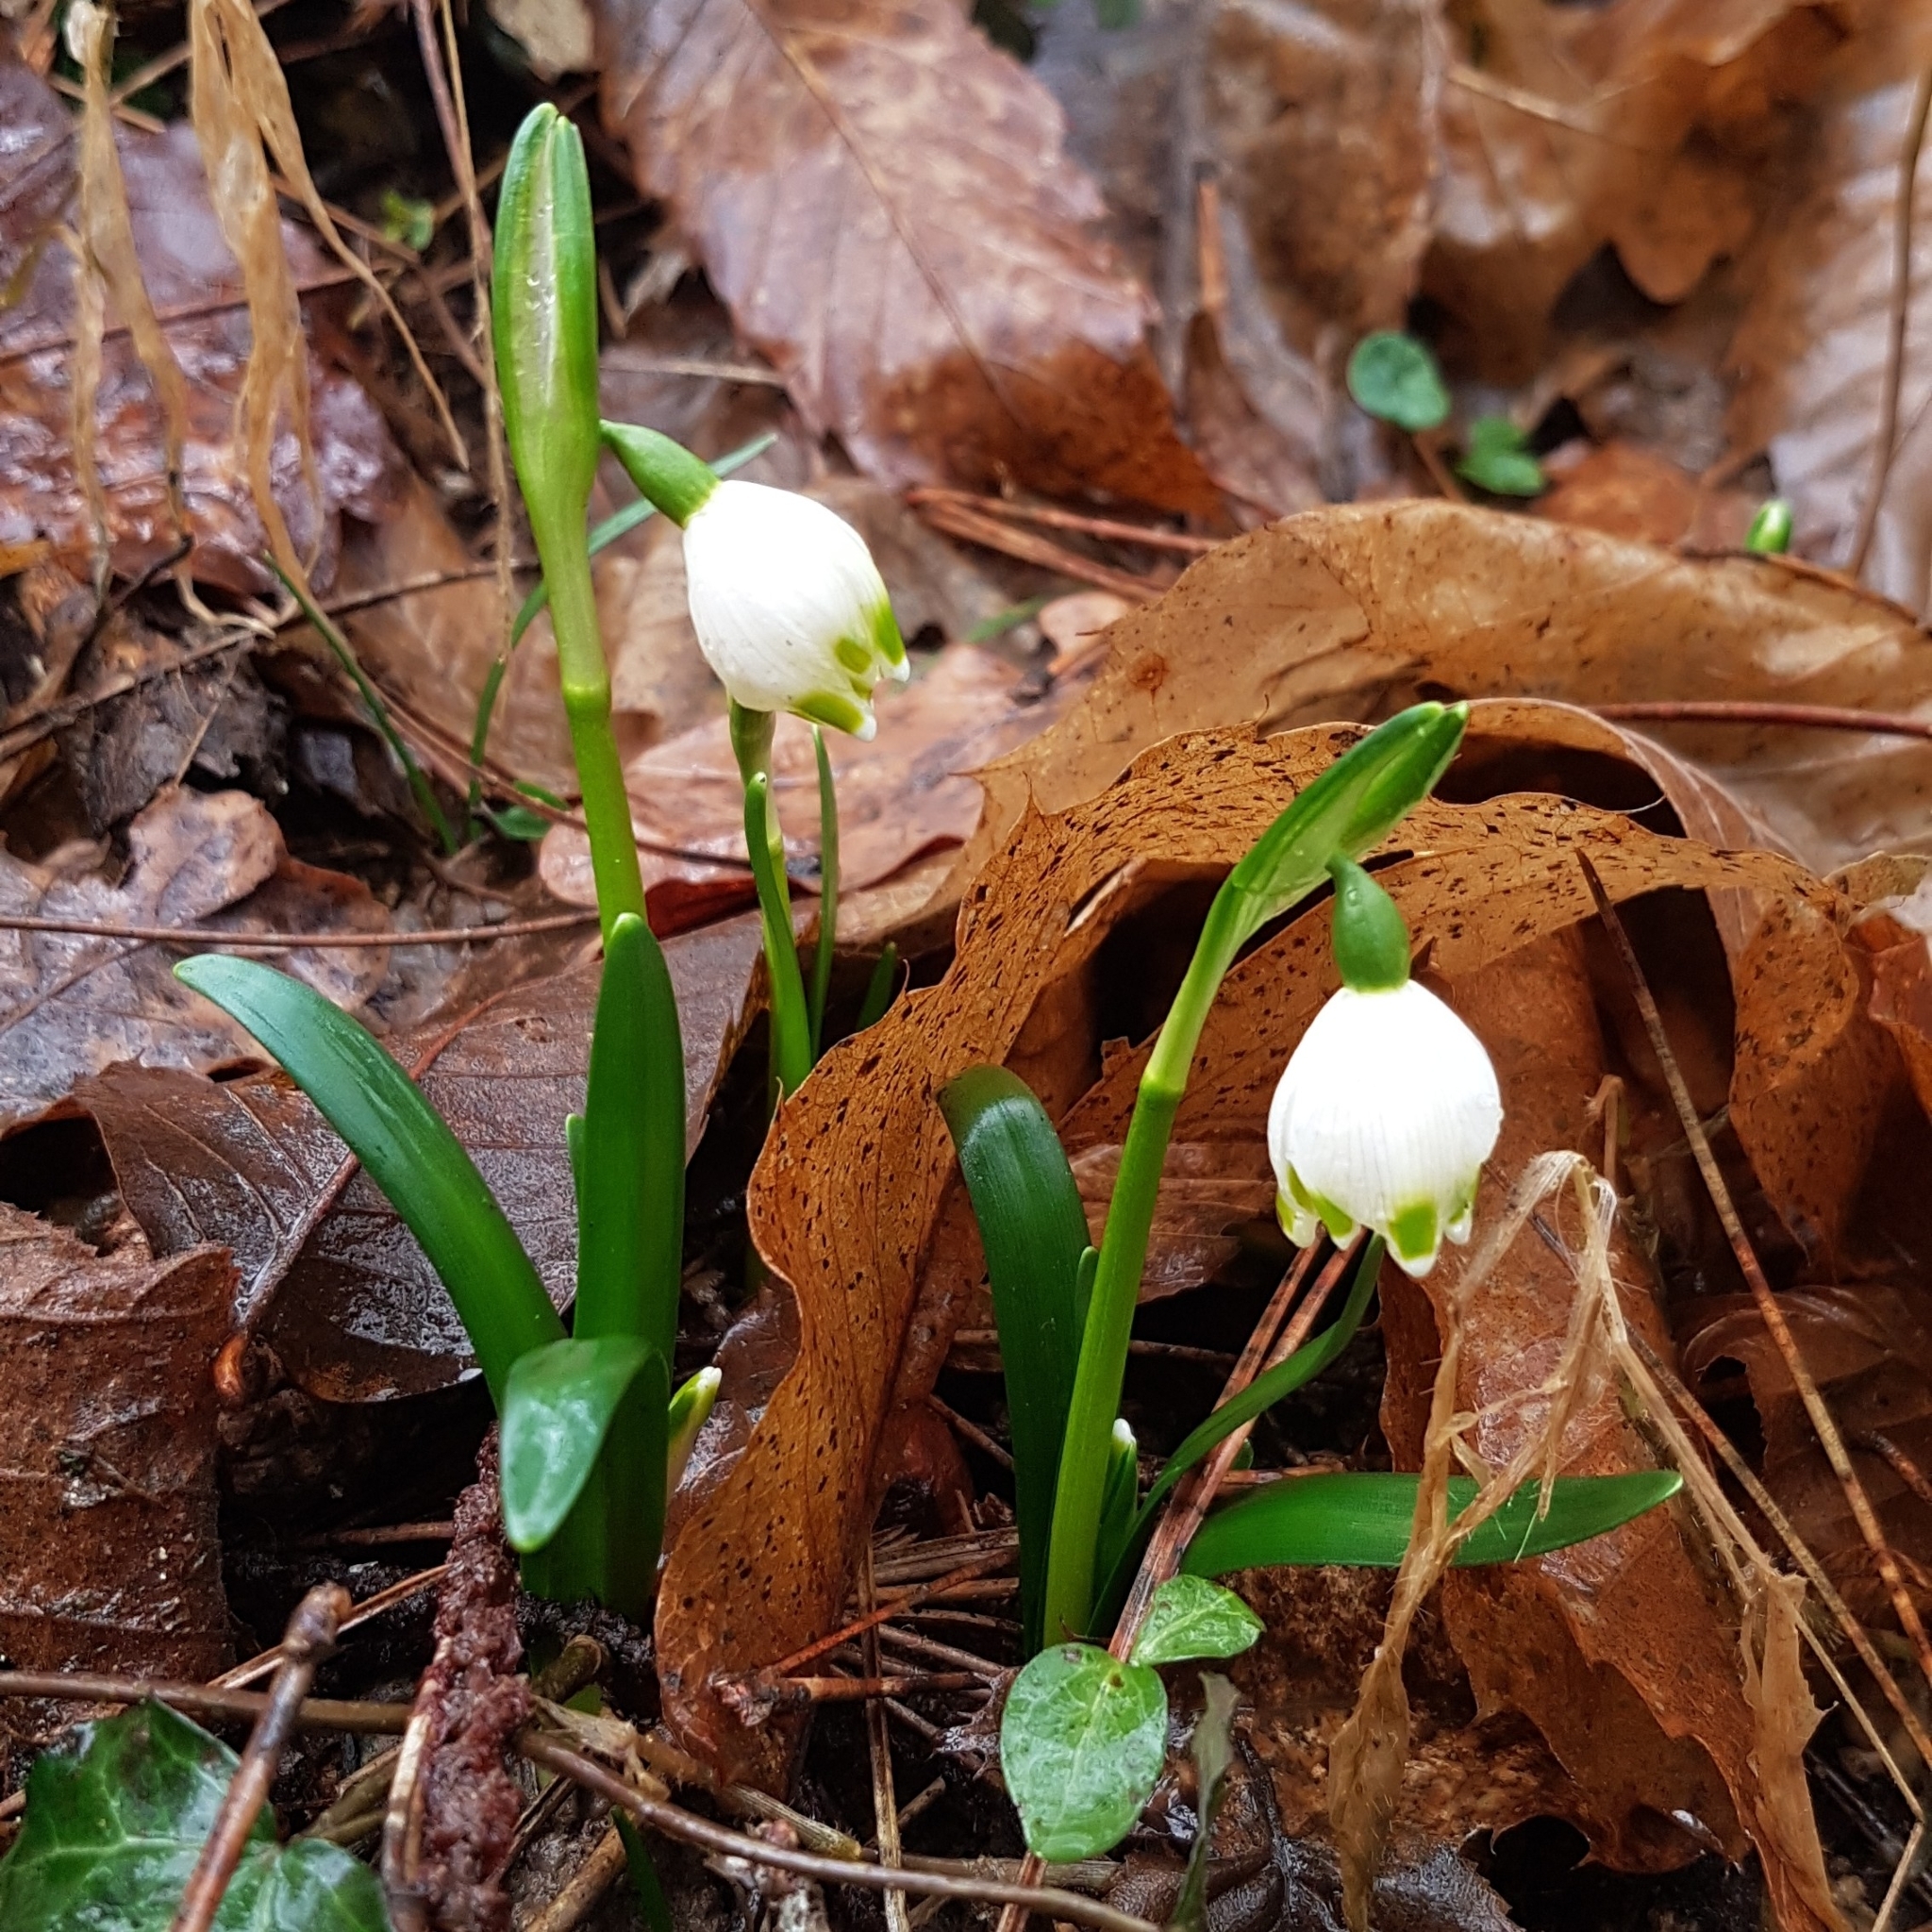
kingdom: Plantae
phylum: Tracheophyta
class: Liliopsida
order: Asparagales
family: Amaryllidaceae
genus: Leucojum
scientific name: Leucojum vernum
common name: Spring snowflake
